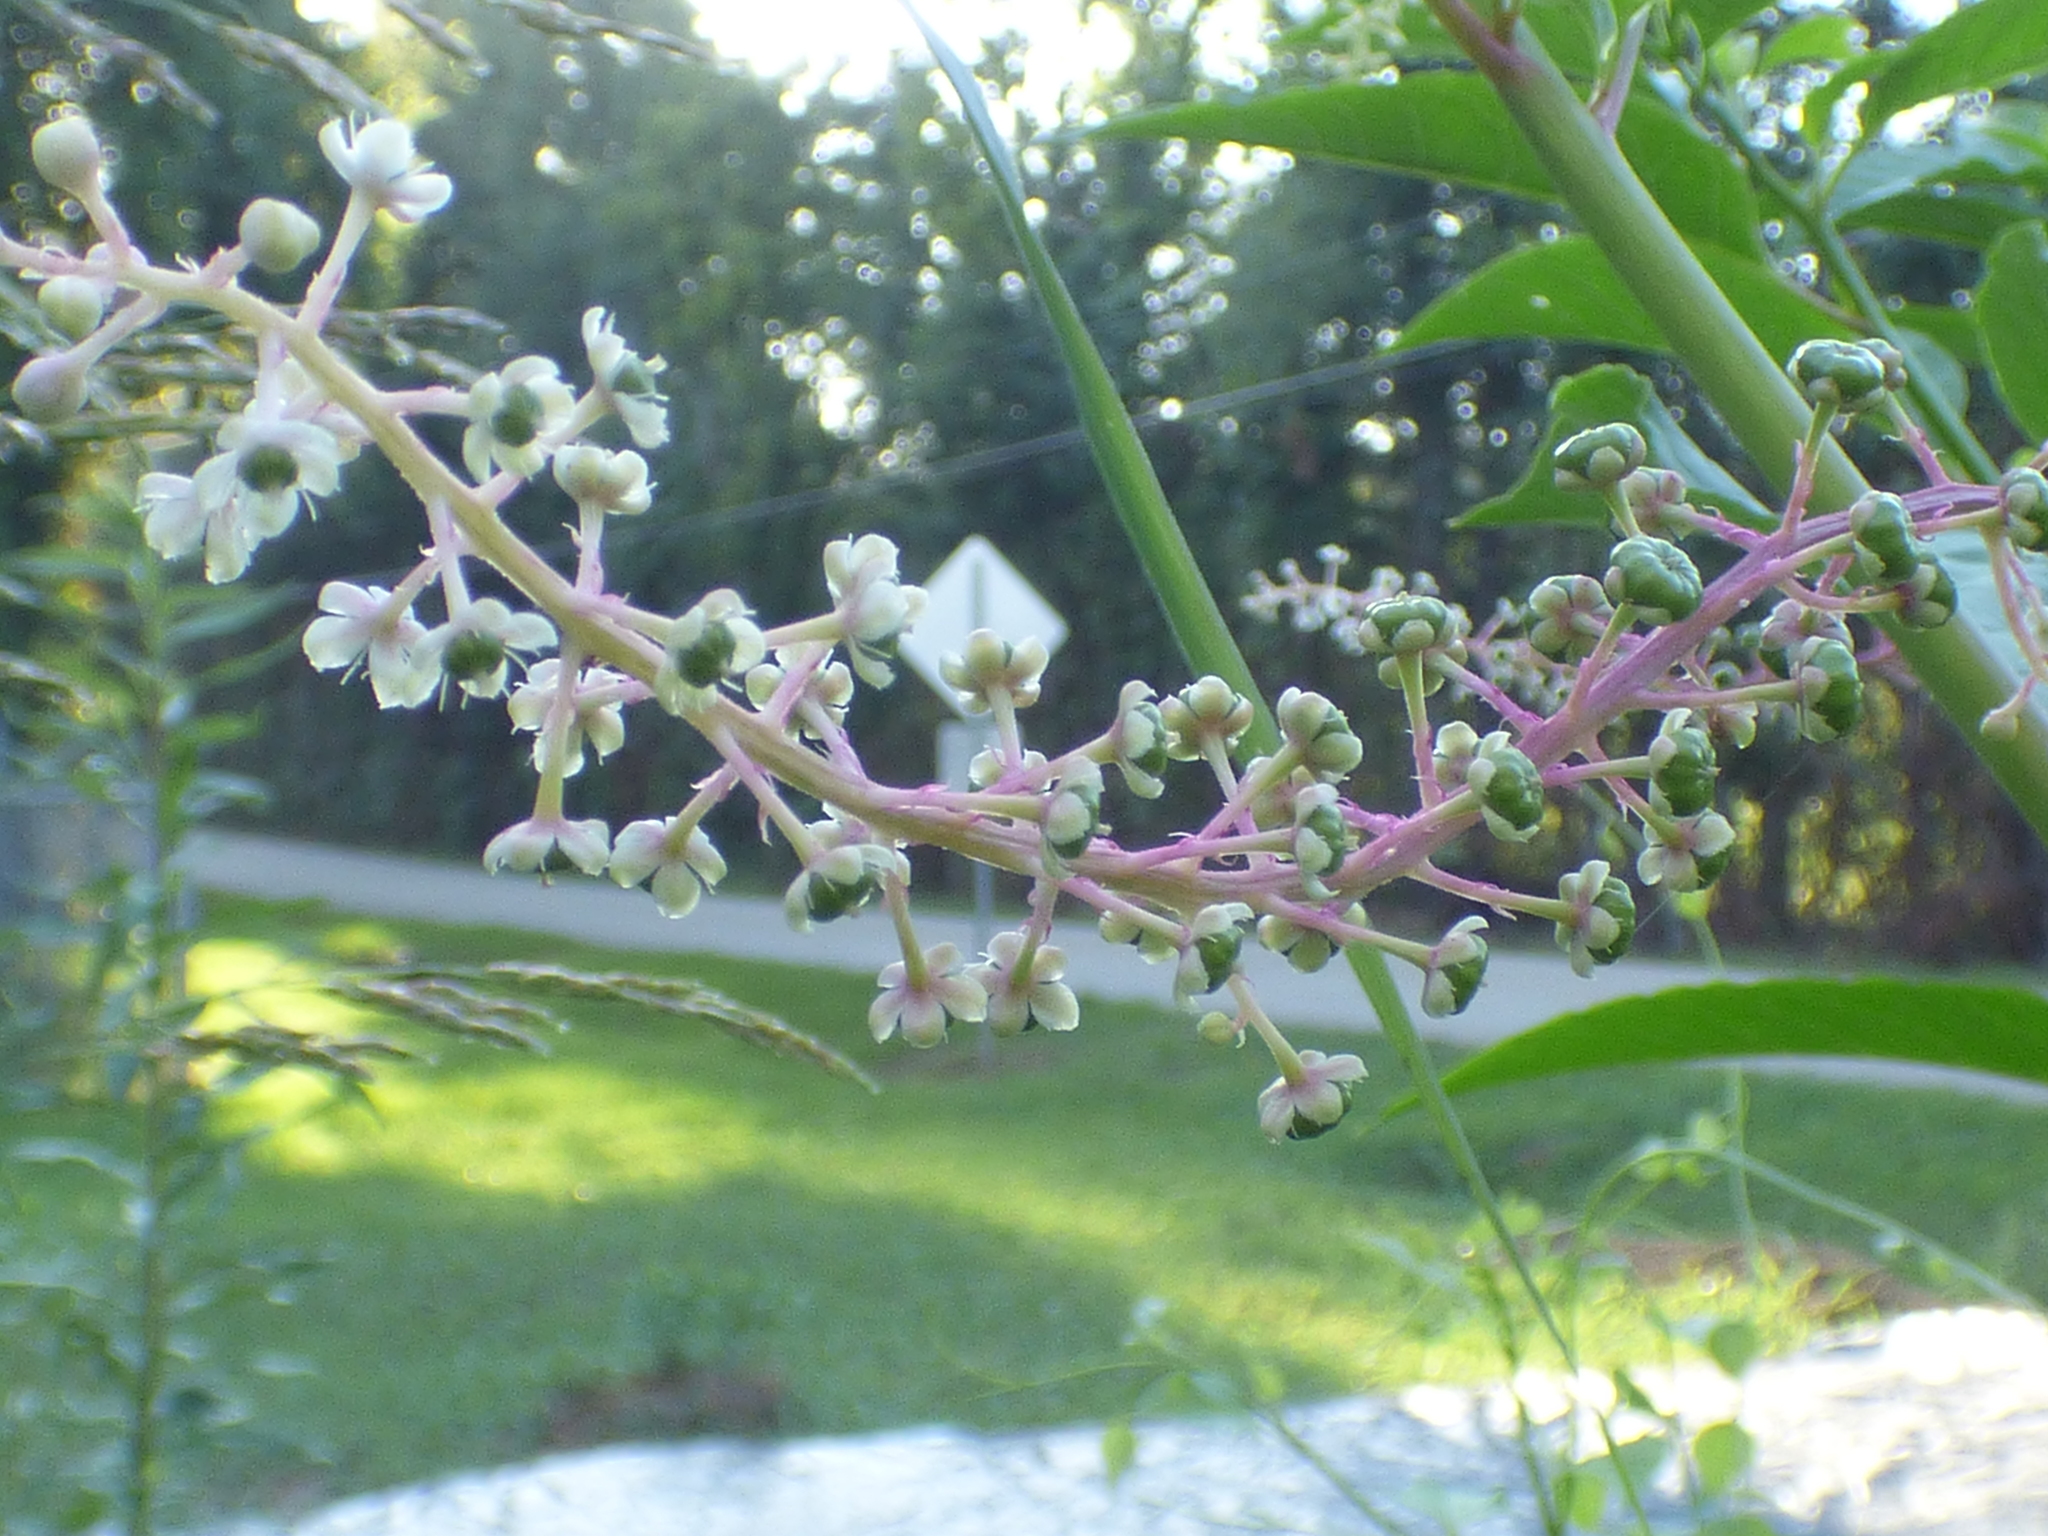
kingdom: Plantae
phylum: Tracheophyta
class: Magnoliopsida
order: Caryophyllales
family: Phytolaccaceae
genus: Phytolacca
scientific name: Phytolacca americana
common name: American pokeweed
